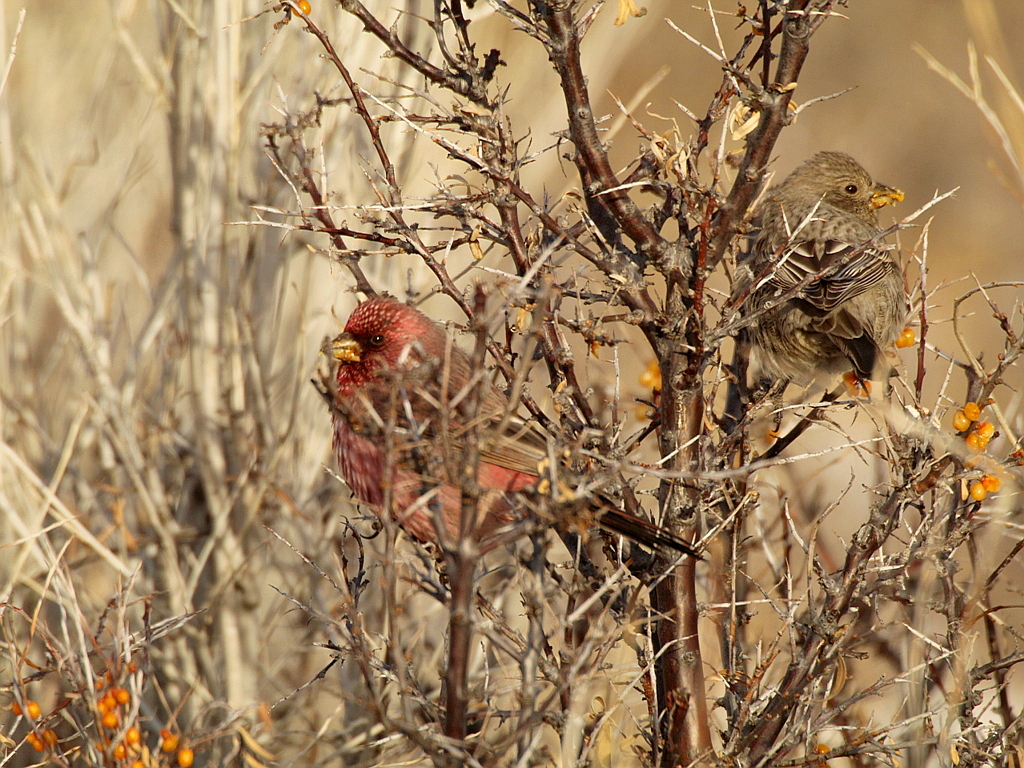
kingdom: Animalia
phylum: Chordata
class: Aves
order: Passeriformes
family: Fringillidae
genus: Carpodacus
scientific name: Carpodacus rubicilla
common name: Great rosefinch
